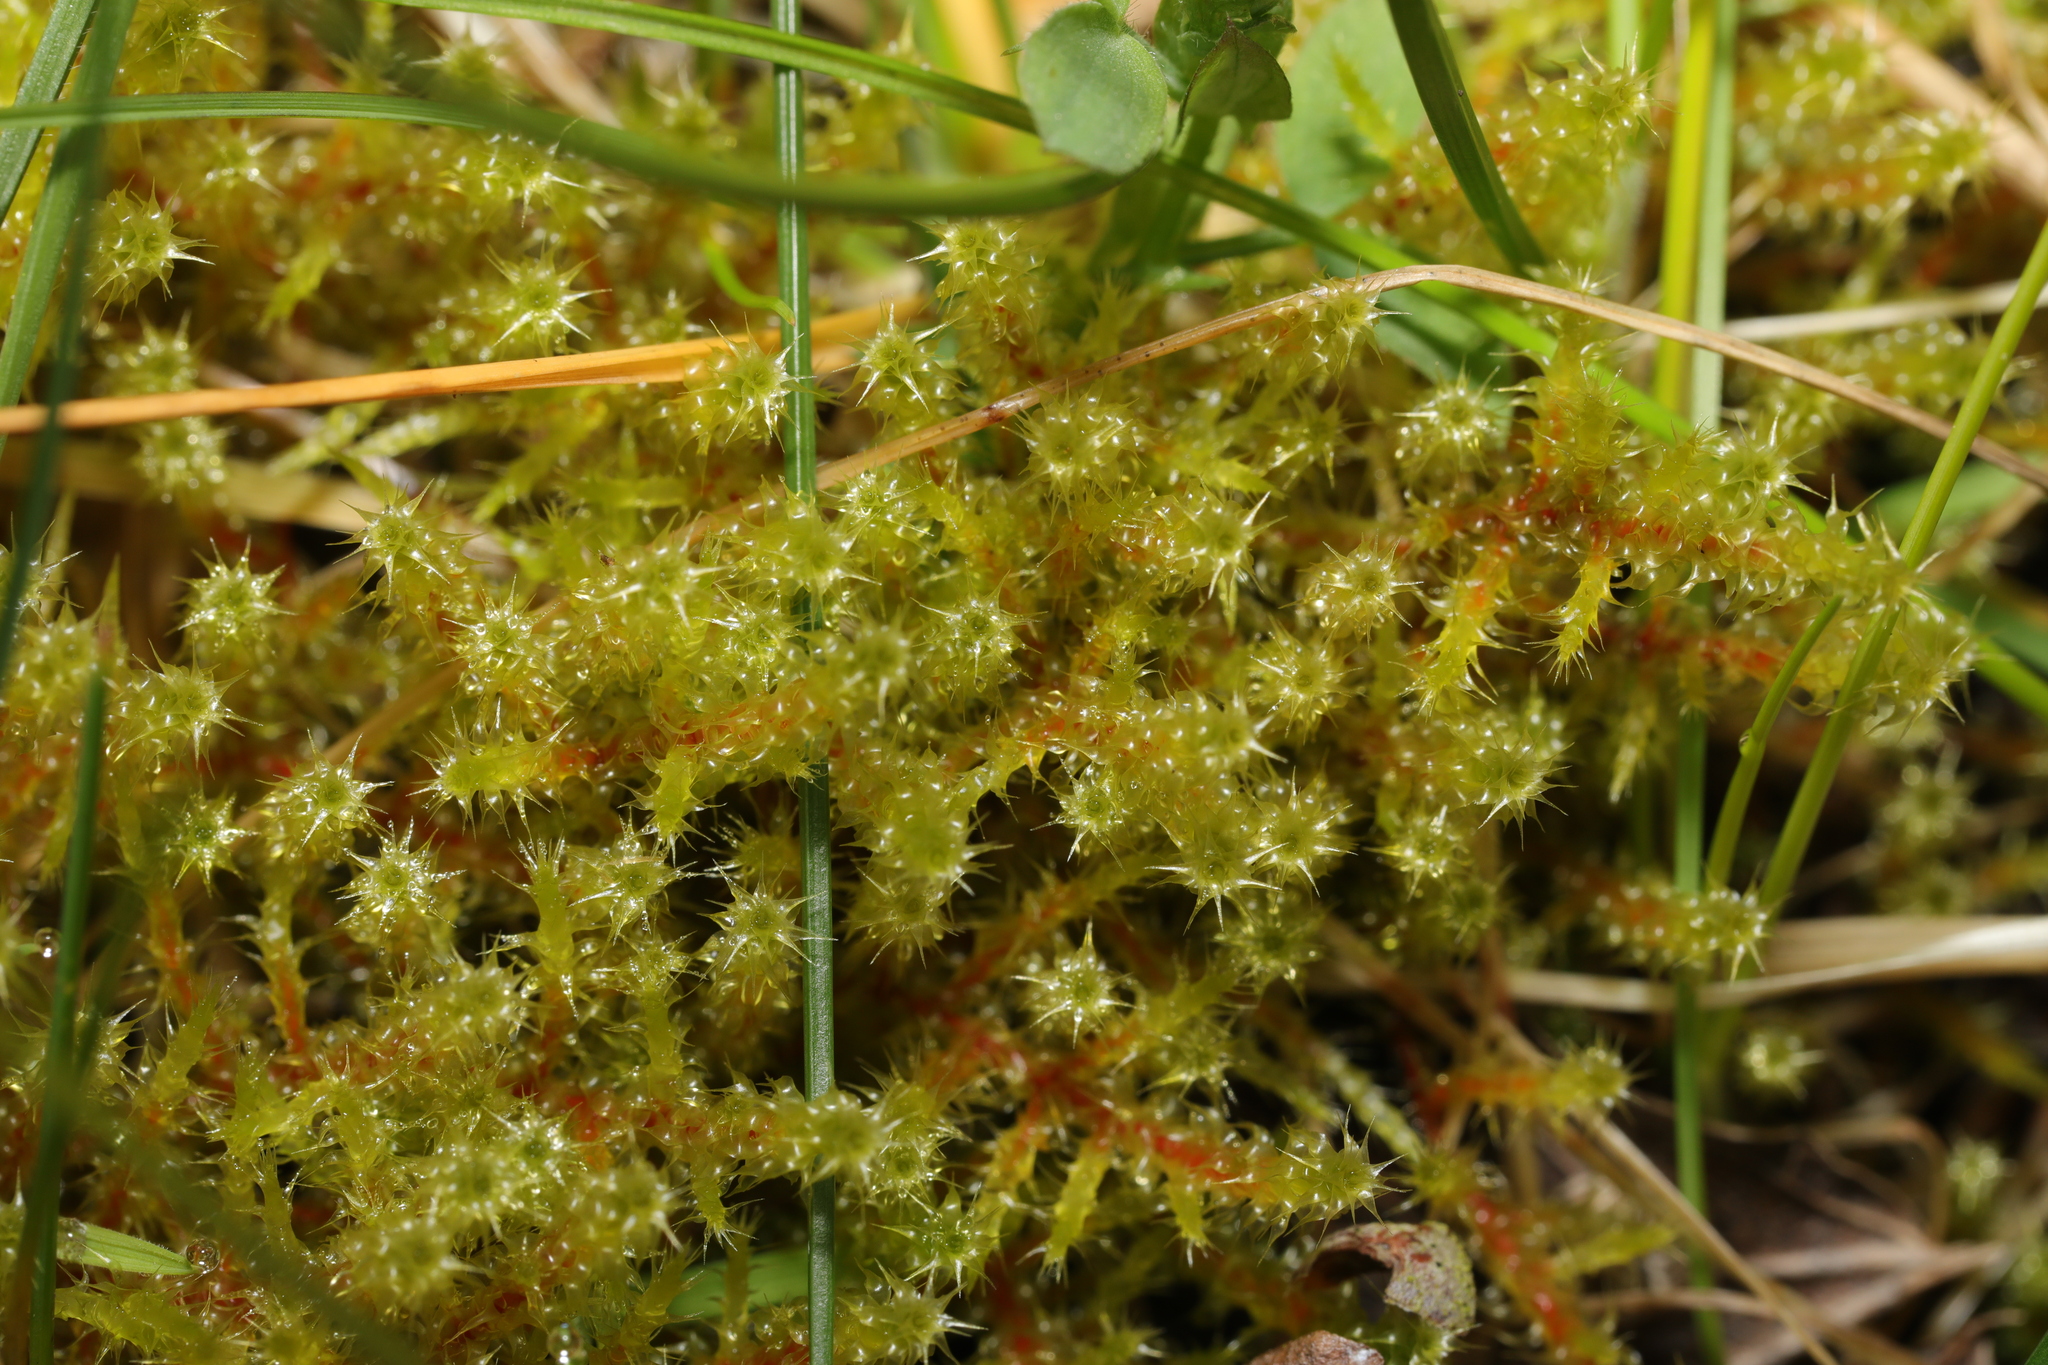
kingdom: Plantae
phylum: Bryophyta
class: Bryopsida
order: Hypnales
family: Hylocomiaceae
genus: Rhytidiadelphus
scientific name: Rhytidiadelphus squarrosus
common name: Springy turf-moss
